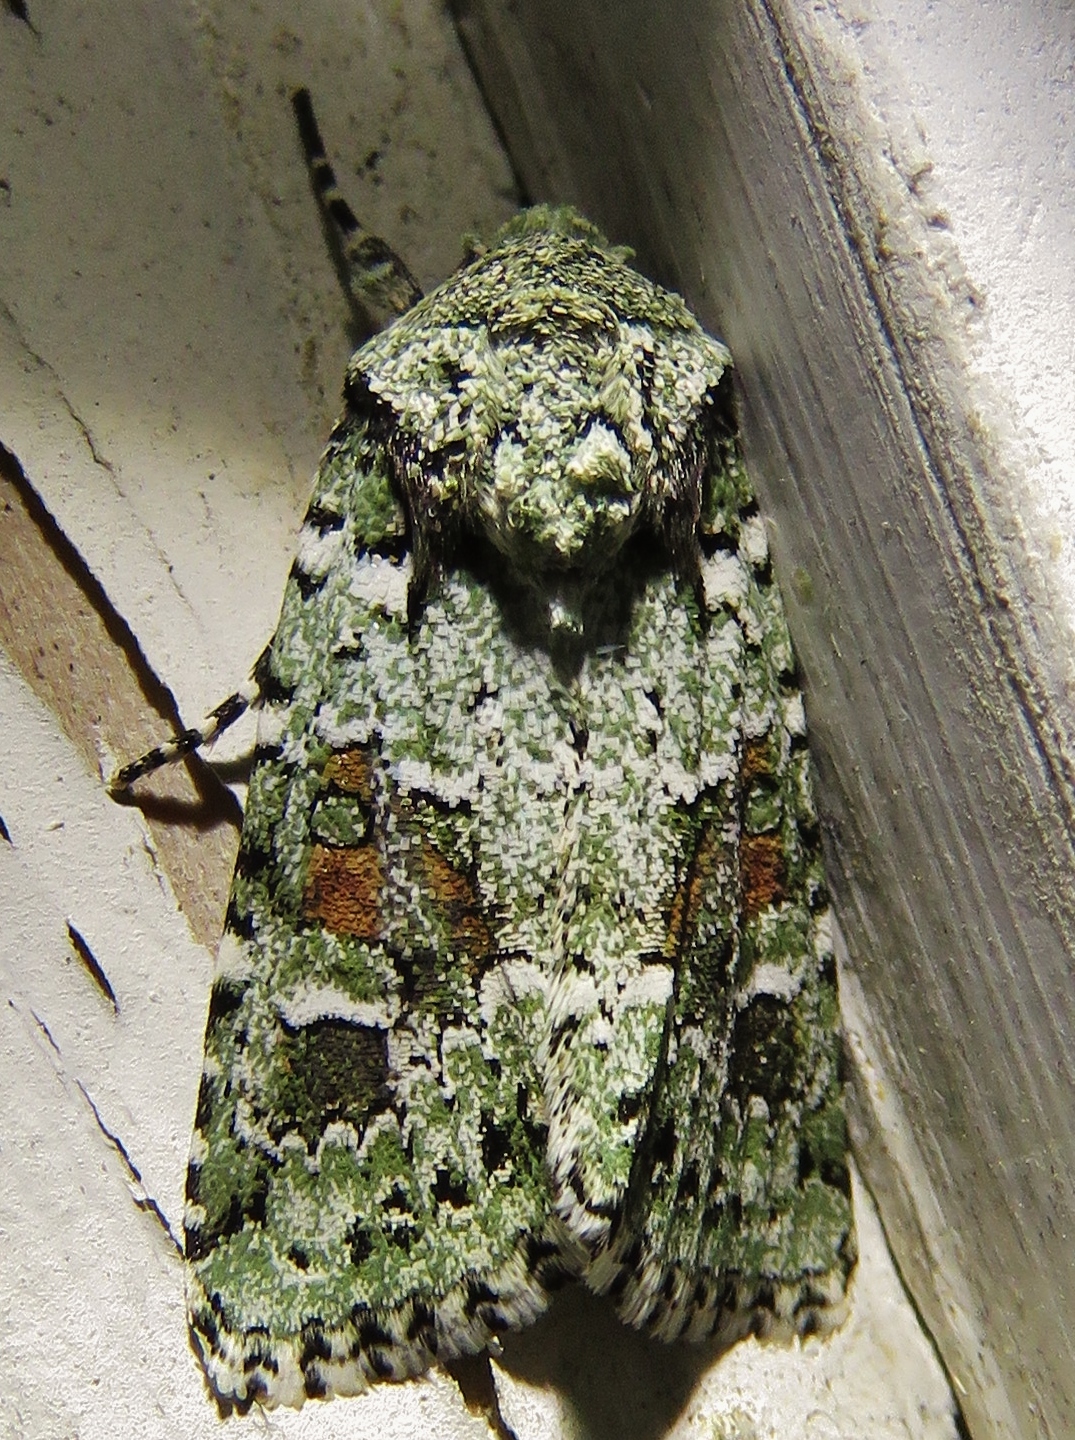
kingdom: Animalia
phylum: Arthropoda
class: Insecta
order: Lepidoptera
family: Noctuidae
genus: Lacinipolia
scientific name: Lacinipolia laudabilis
